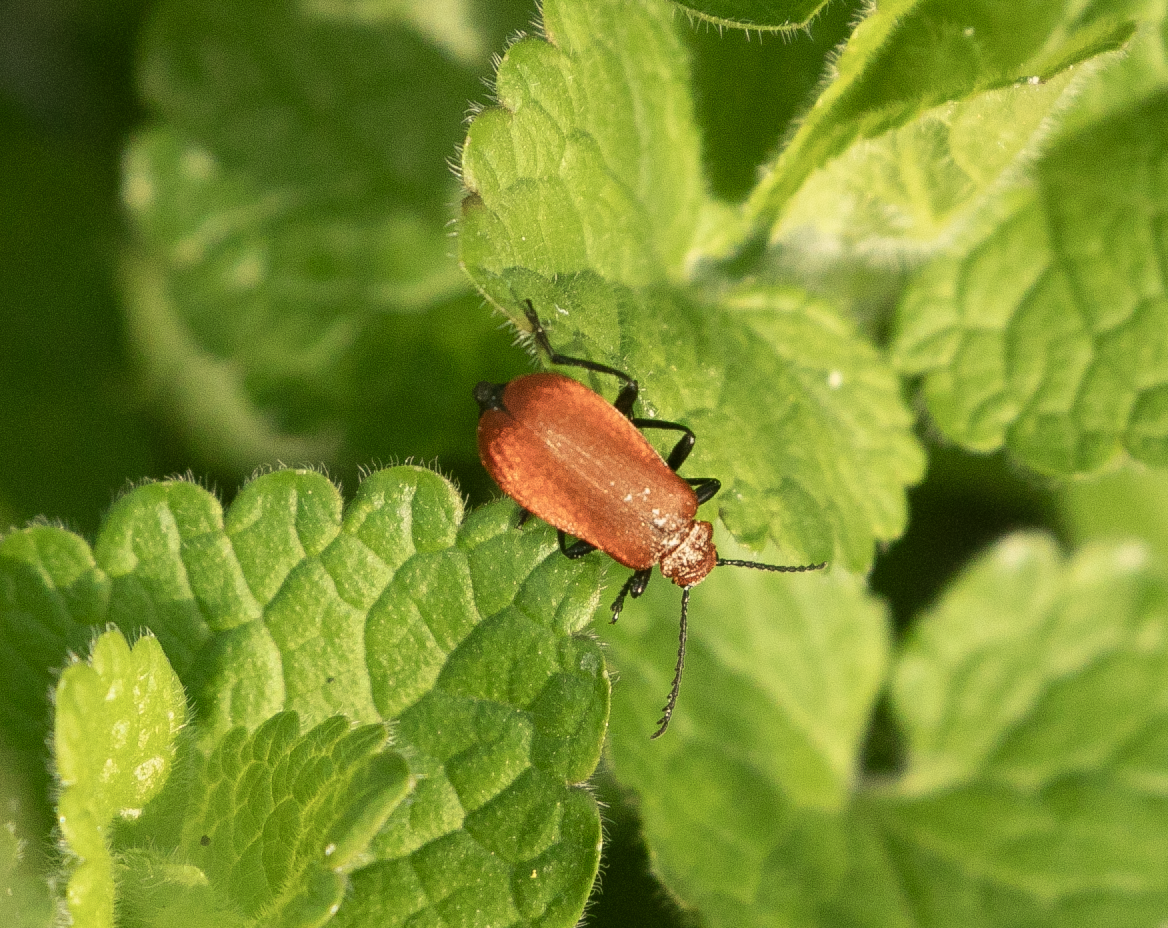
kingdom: Animalia
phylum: Arthropoda
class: Insecta
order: Coleoptera
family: Pyrochroidae
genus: Pyrochroa
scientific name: Pyrochroa serraticornis
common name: Red-headed cardinal beetle
